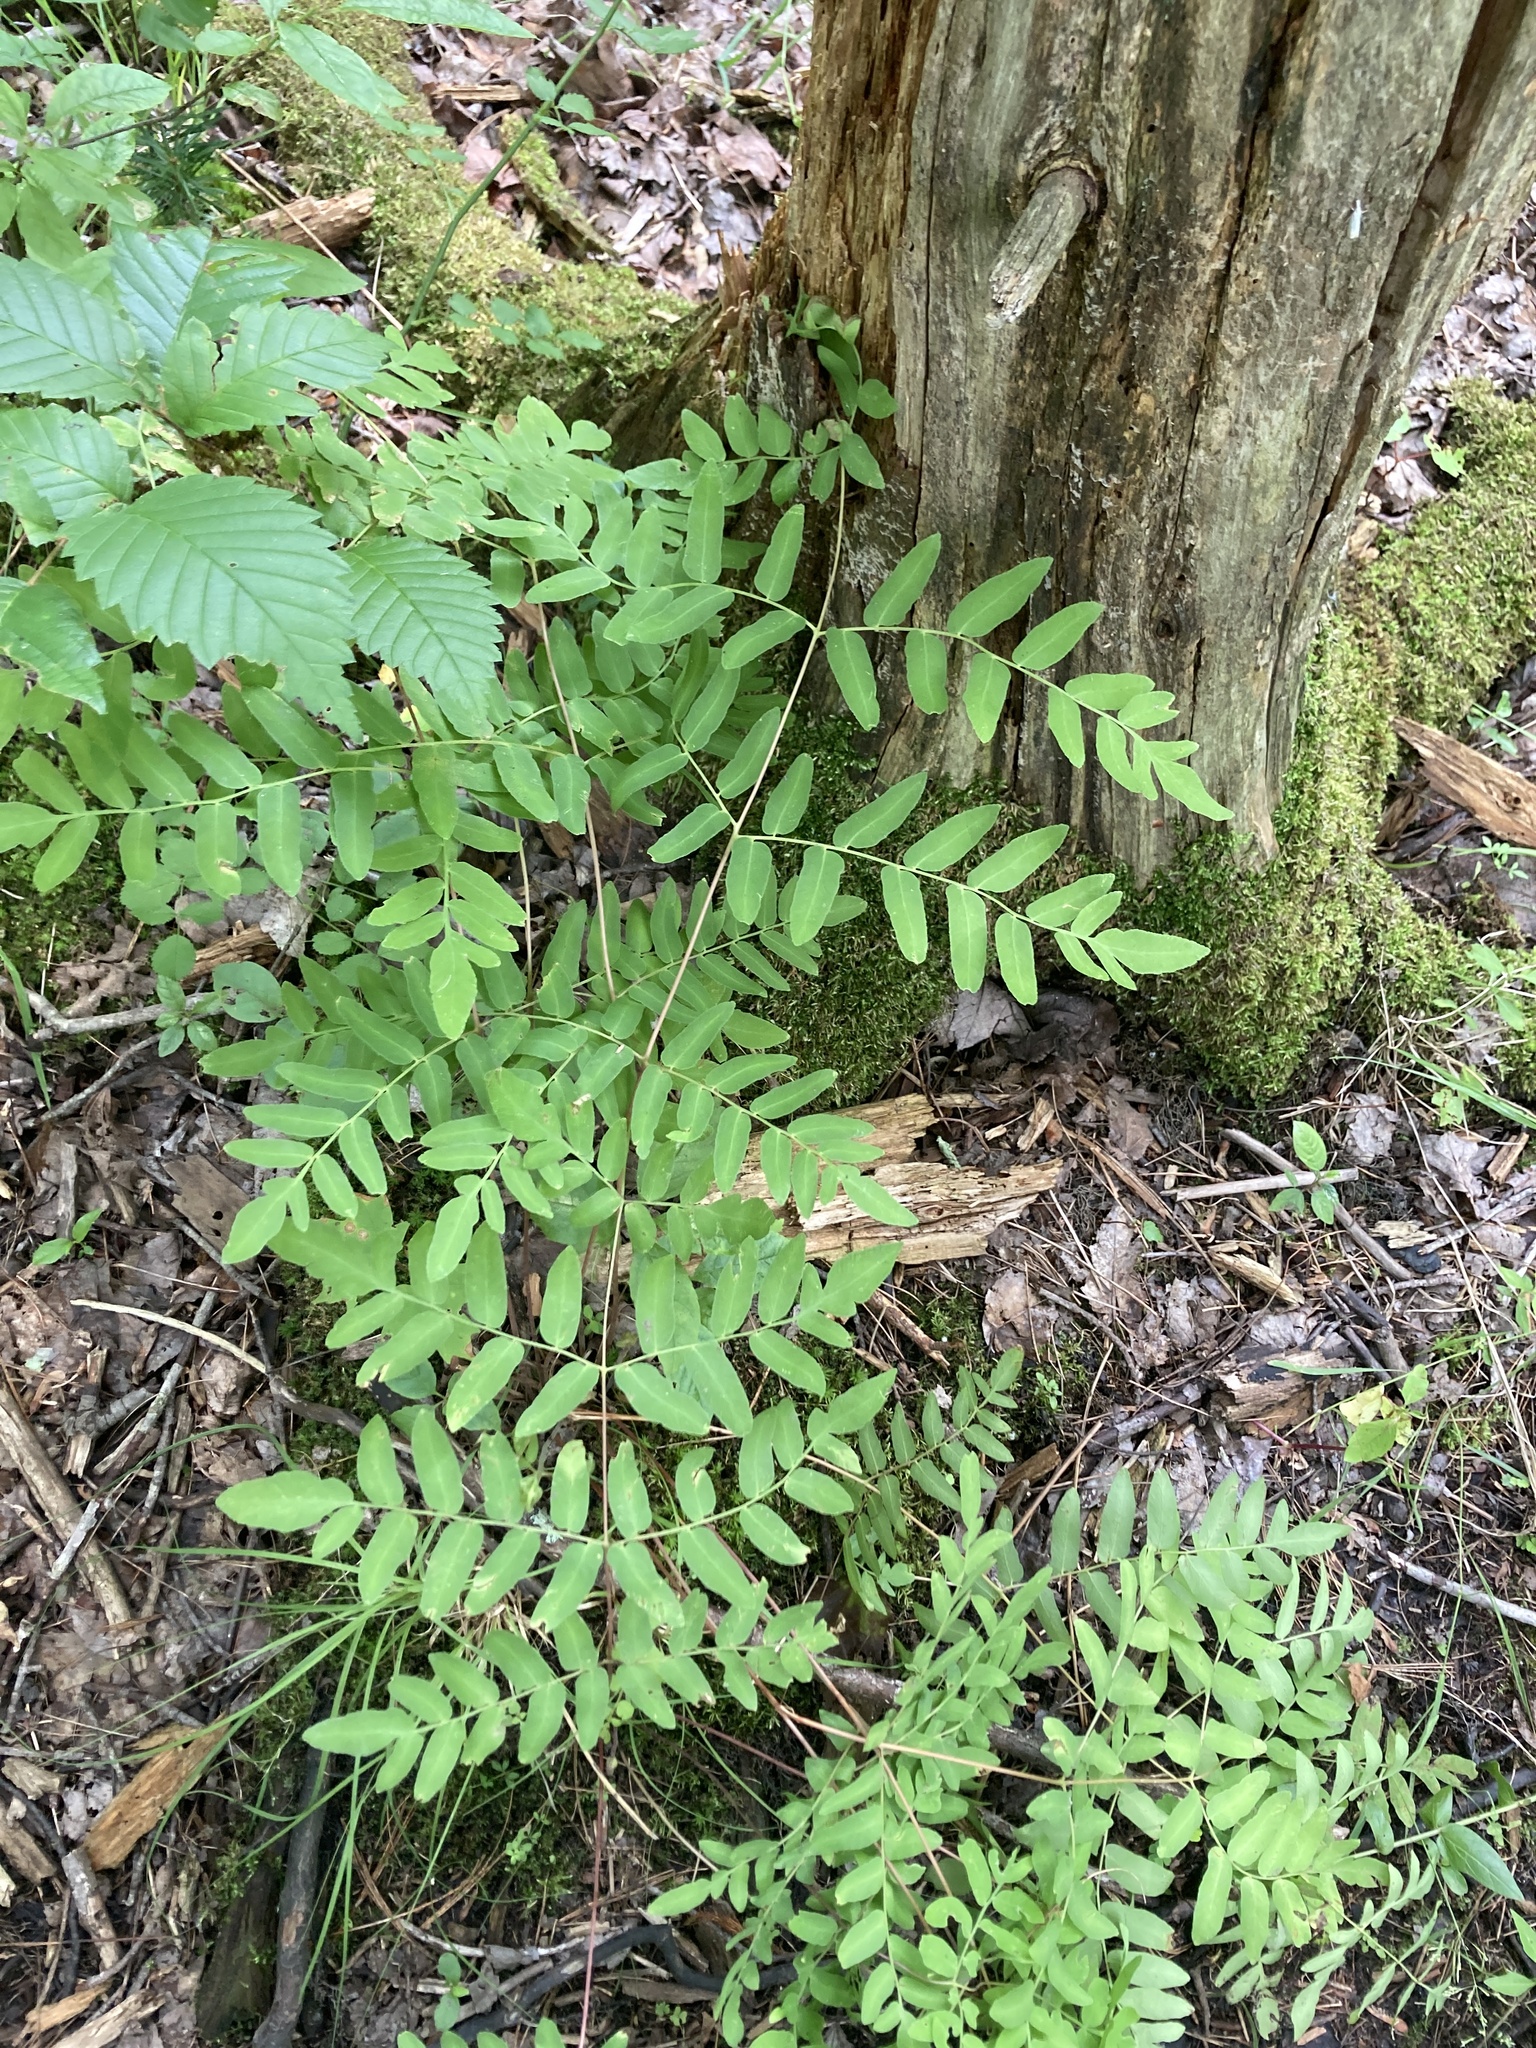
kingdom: Plantae
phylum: Tracheophyta
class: Polypodiopsida
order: Osmundales
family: Osmundaceae
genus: Osmunda
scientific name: Osmunda spectabilis
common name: American royal fern
